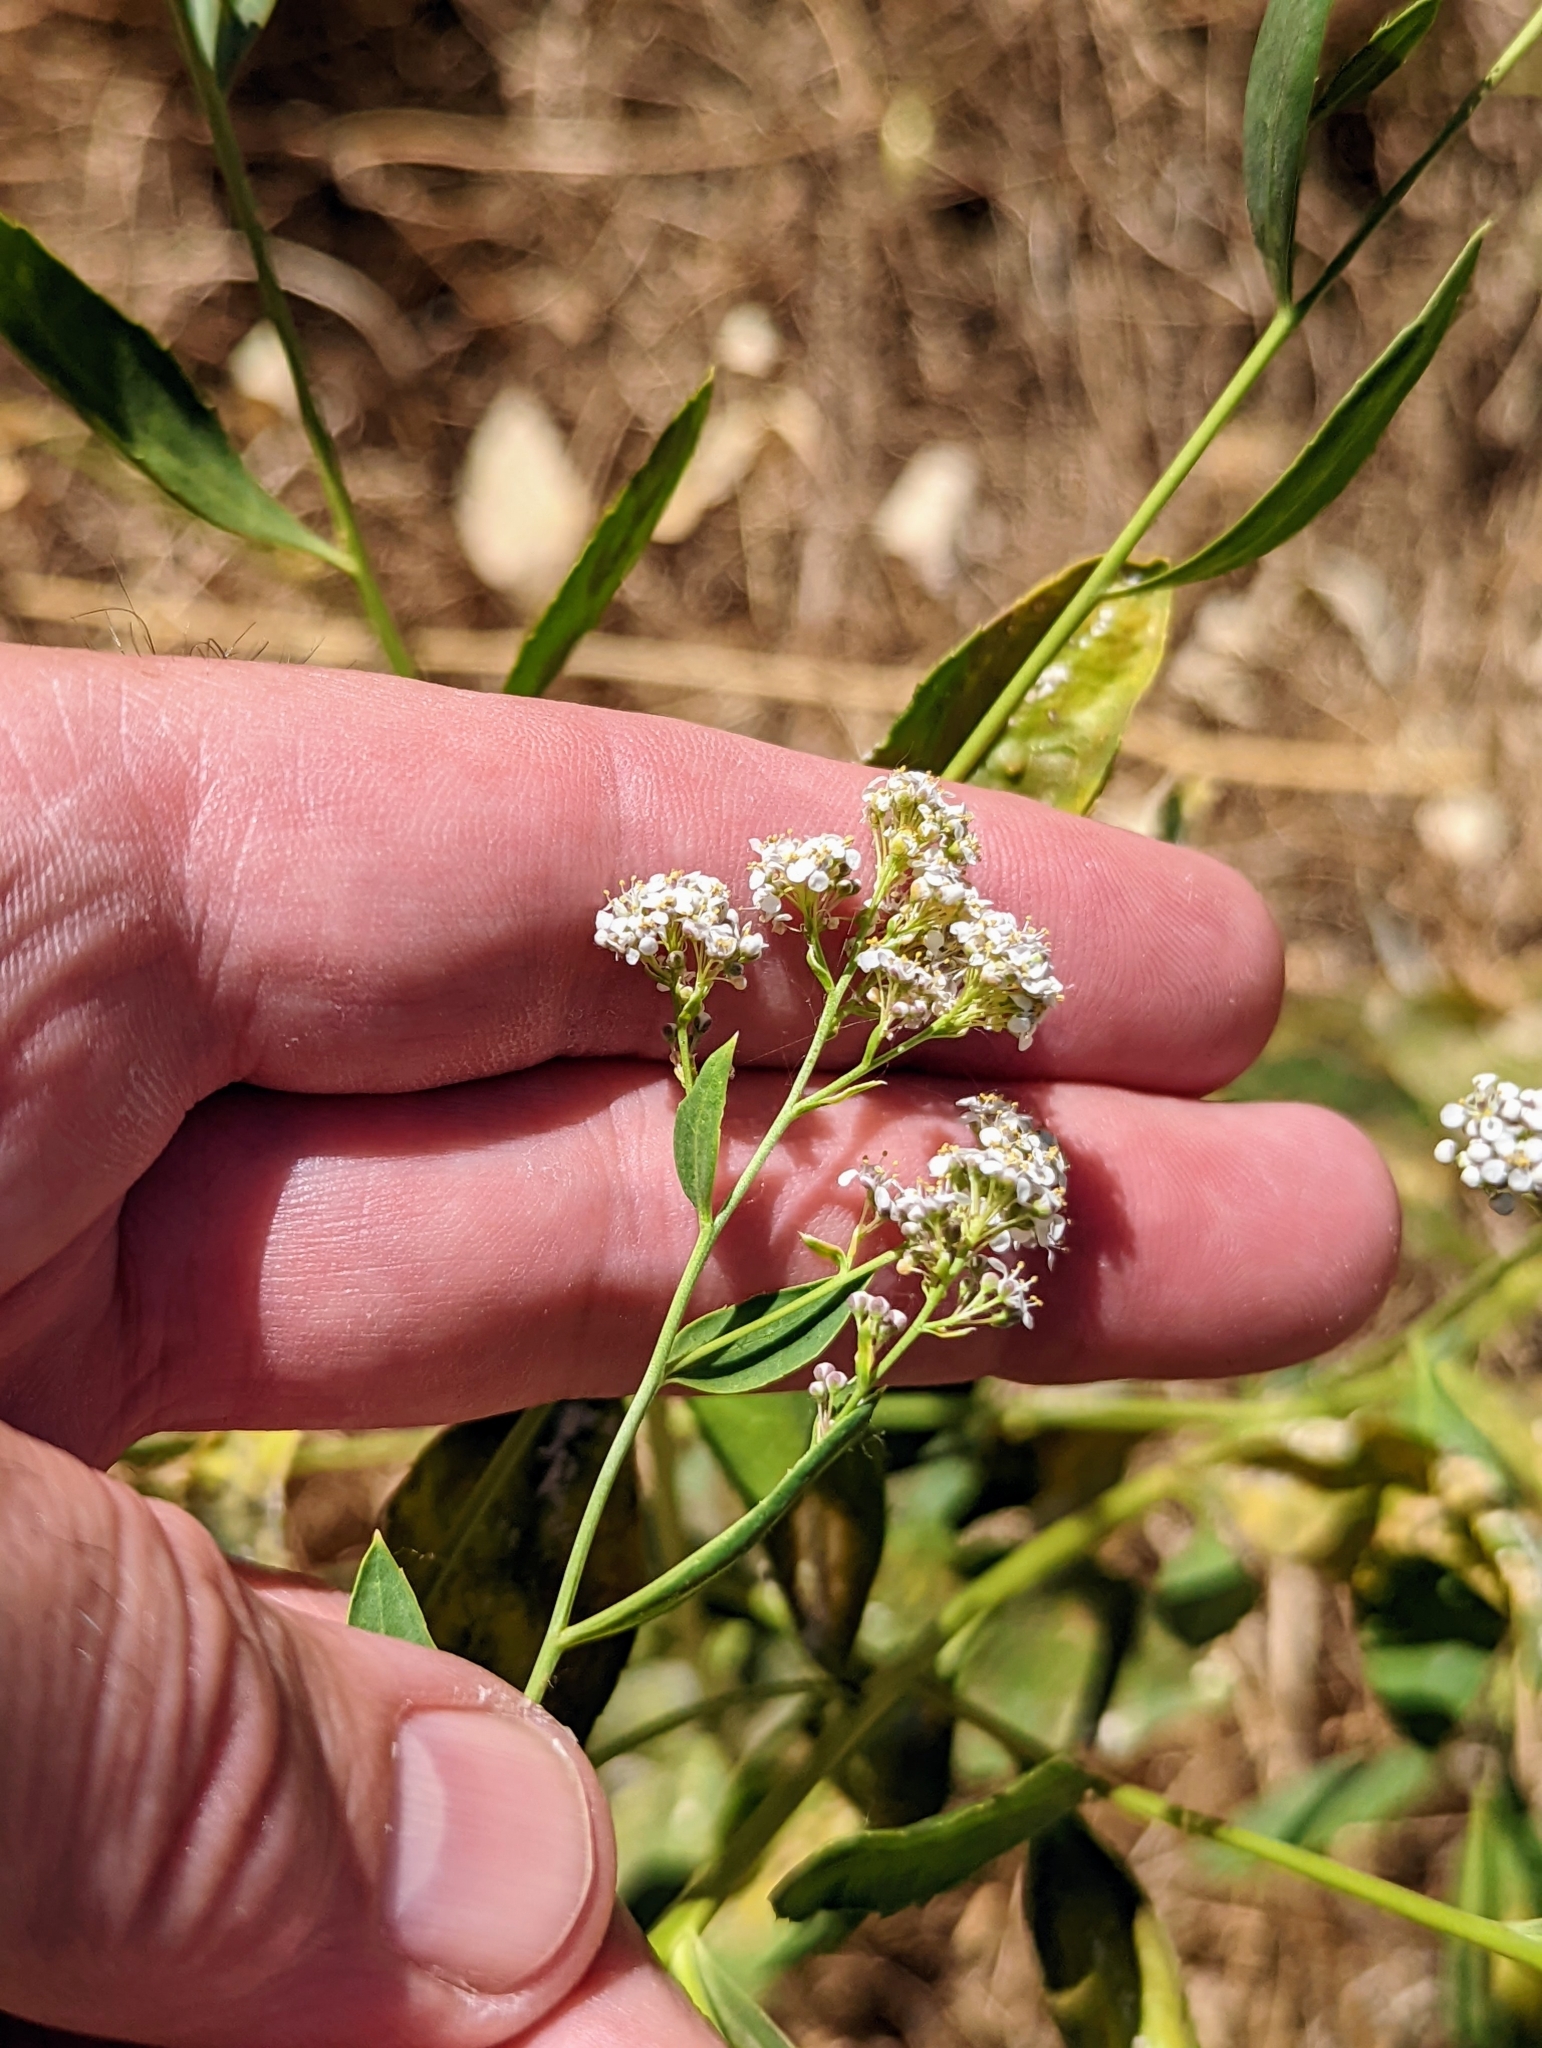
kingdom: Plantae
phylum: Tracheophyta
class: Magnoliopsida
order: Brassicales
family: Brassicaceae
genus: Lepidium
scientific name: Lepidium latifolium
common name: Dittander
